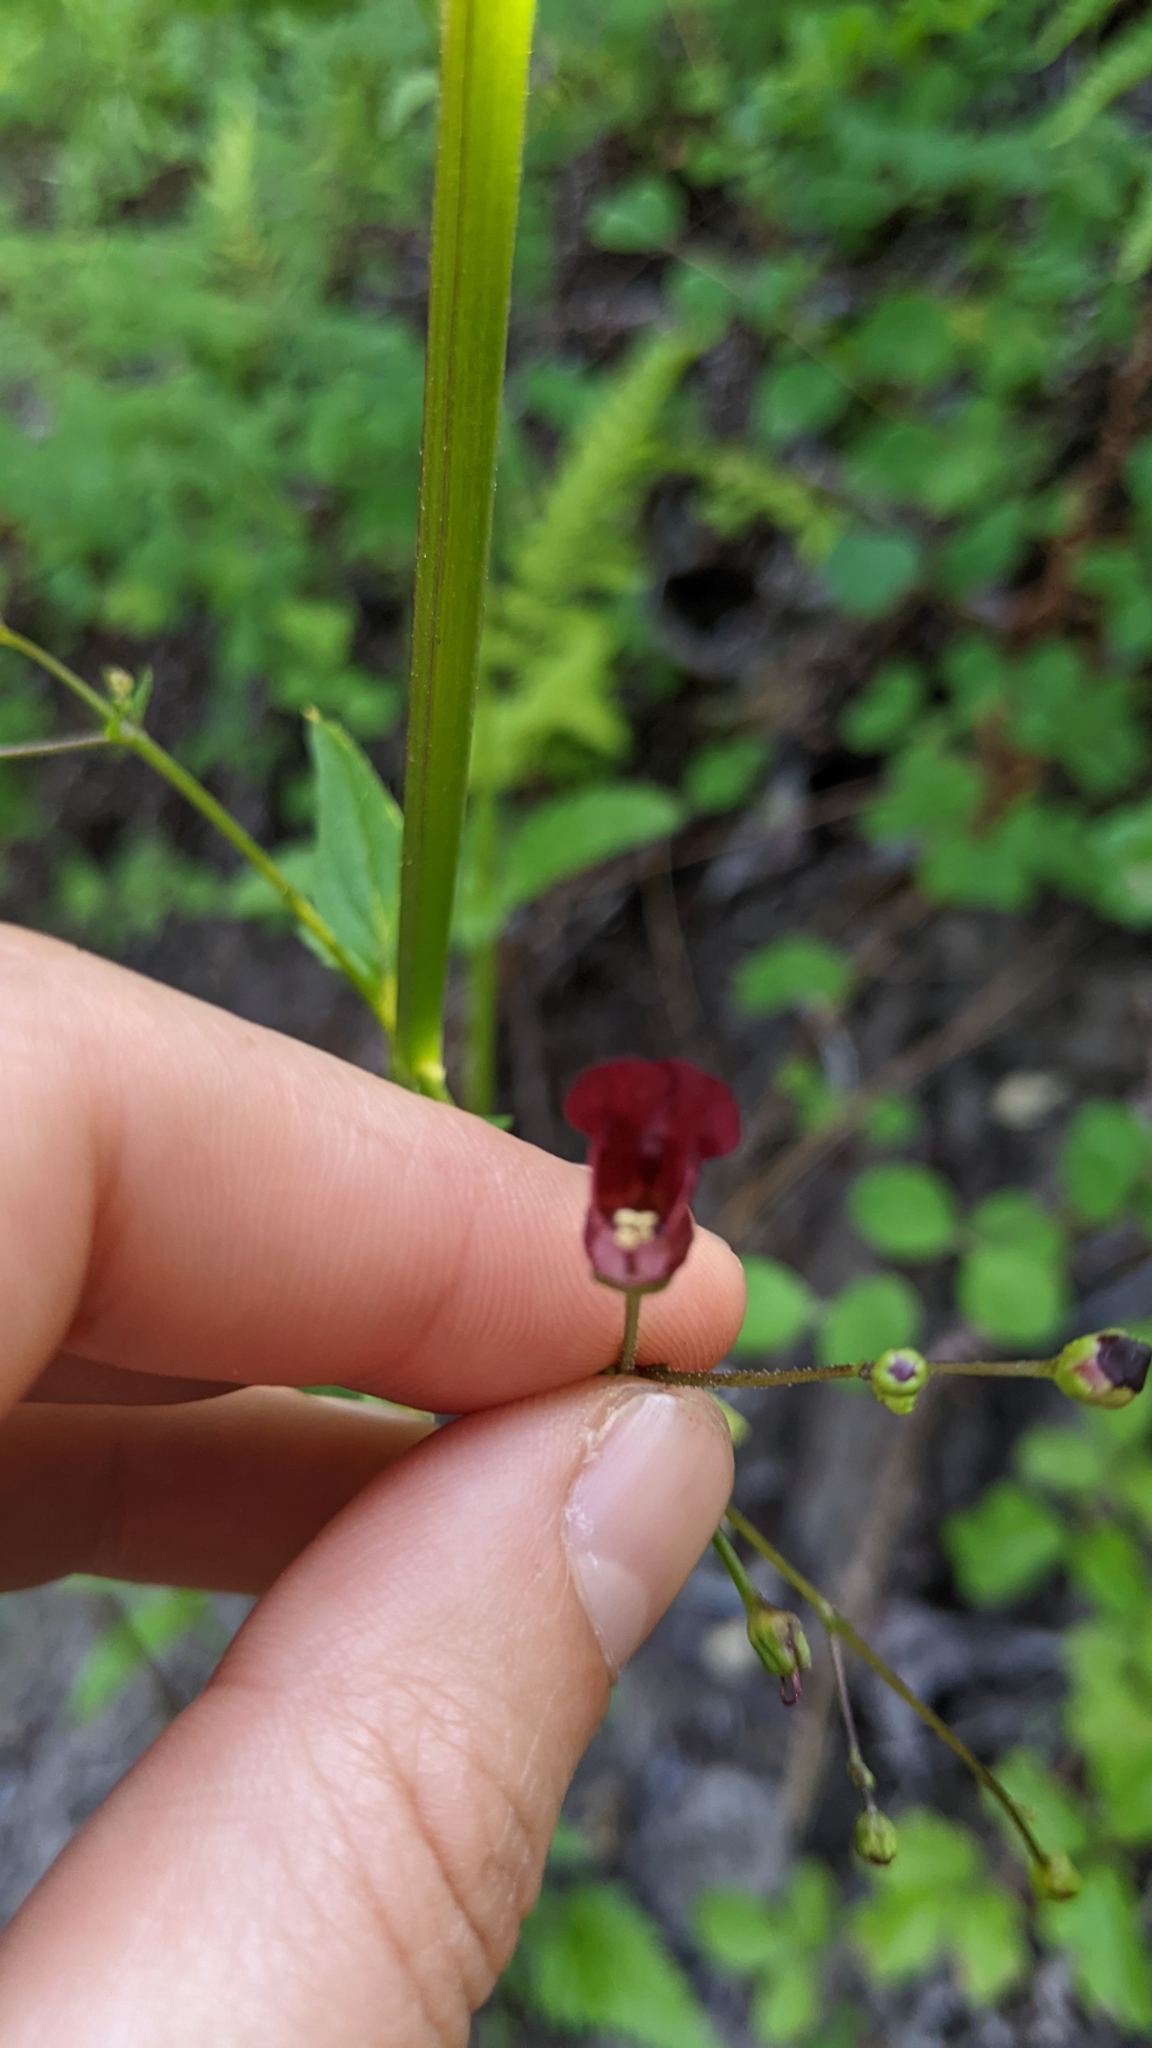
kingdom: Plantae
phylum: Tracheophyta
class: Magnoliopsida
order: Lamiales
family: Scrophulariaceae
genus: Scrophularia
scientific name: Scrophularia californica
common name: California figwort
